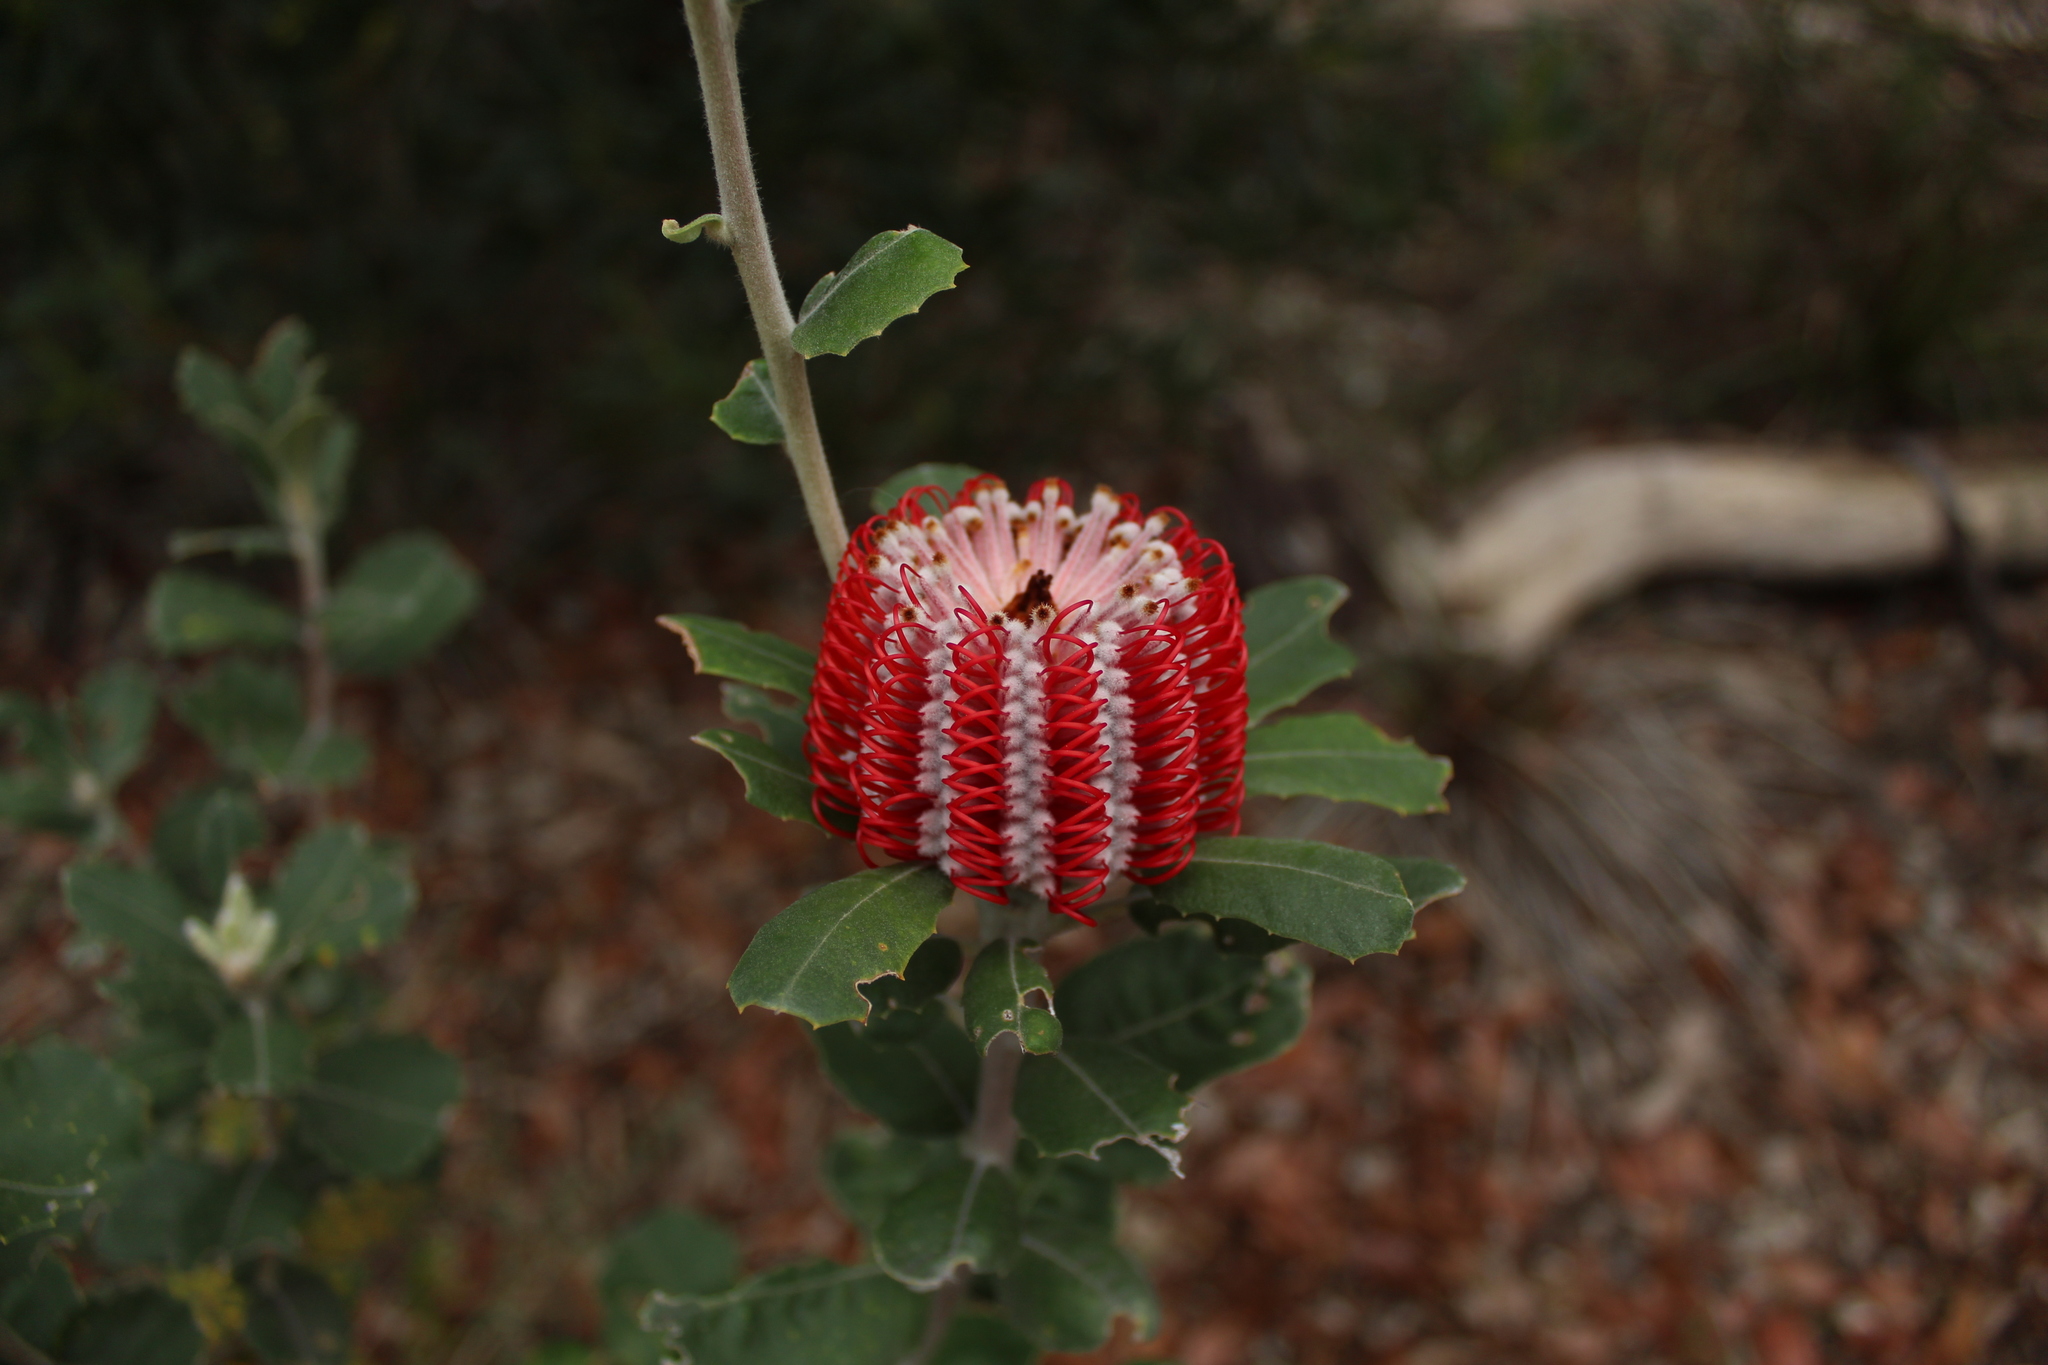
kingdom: Plantae
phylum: Tracheophyta
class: Magnoliopsida
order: Proteales
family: Proteaceae
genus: Banksia
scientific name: Banksia coccinea
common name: Scarlet banksia
